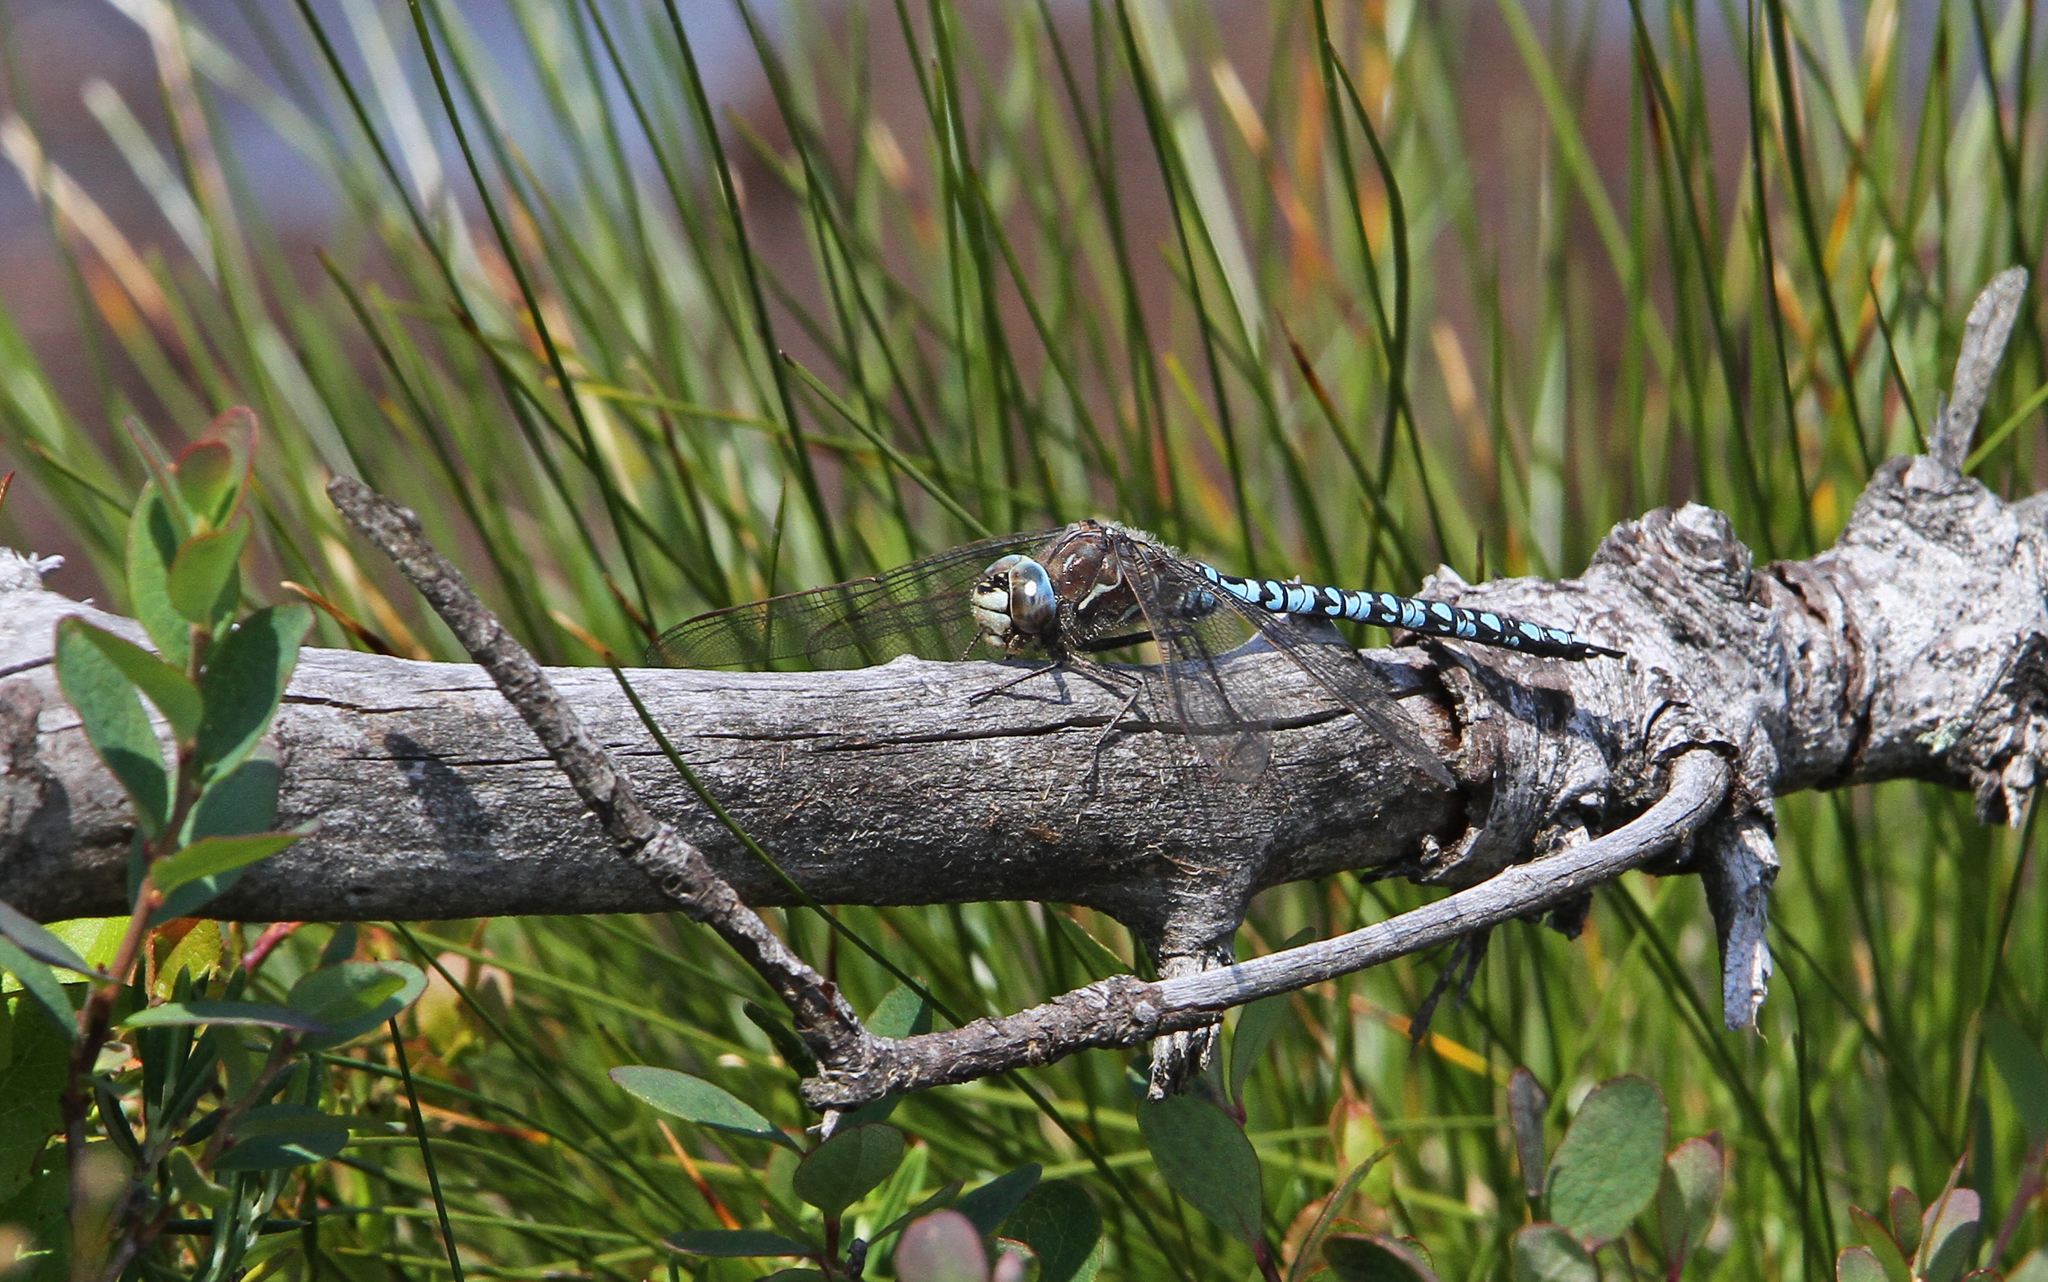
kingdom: Animalia
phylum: Arthropoda
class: Insecta
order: Odonata
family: Aeshnidae
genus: Aeshna
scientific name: Aeshna caerulea
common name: Azure hawker
